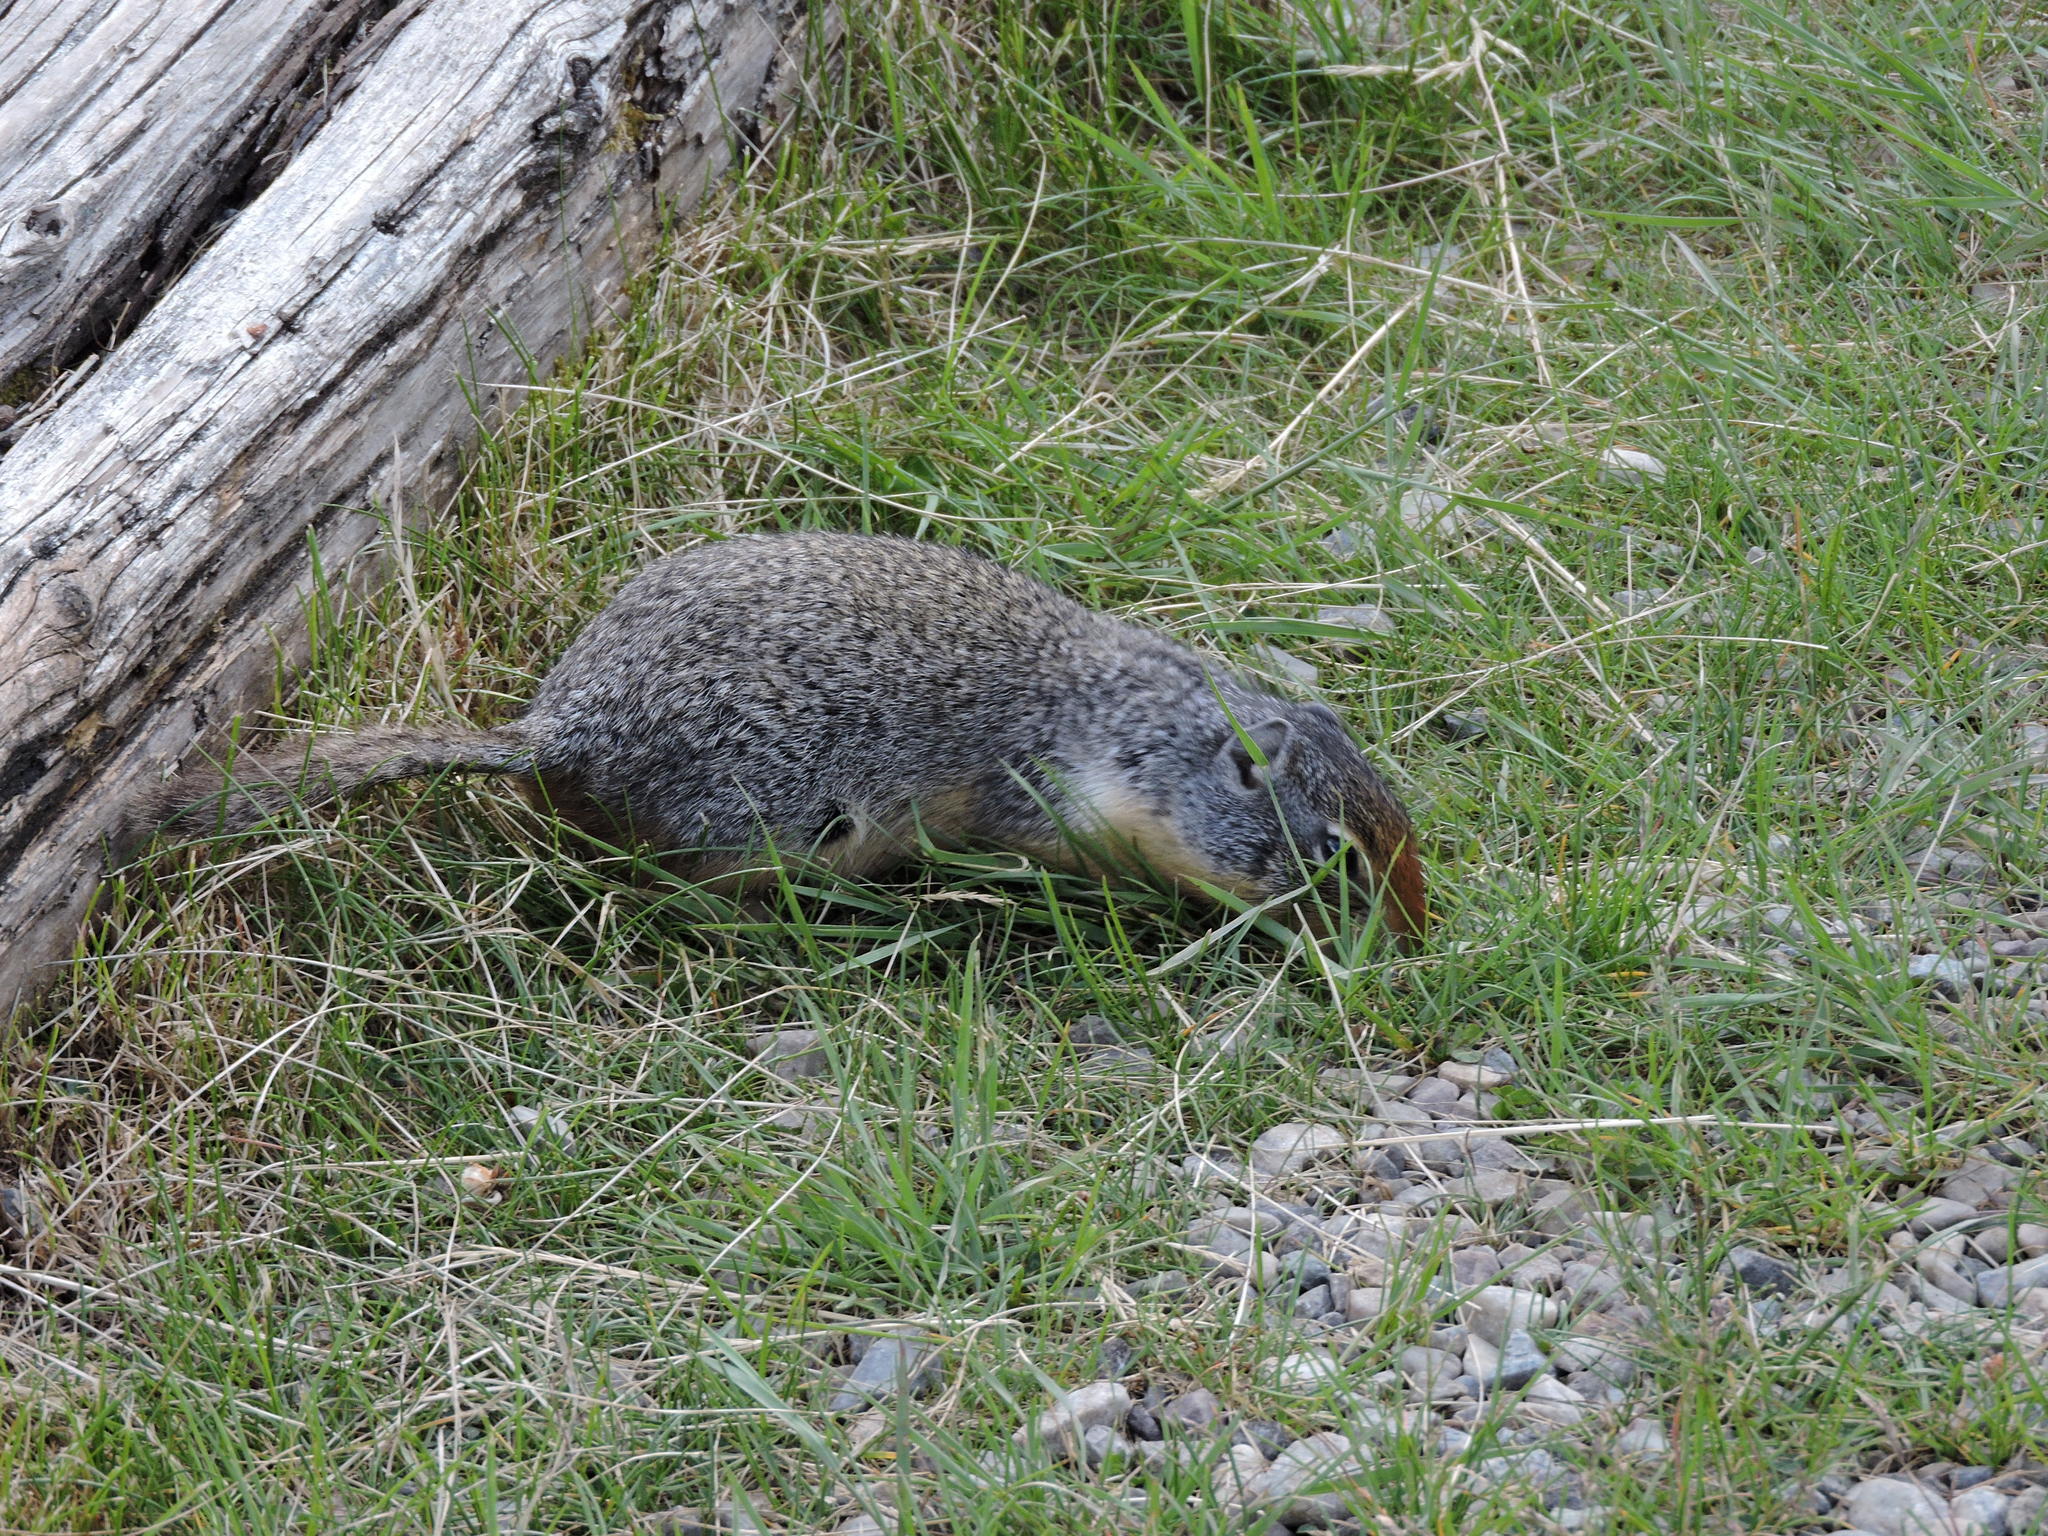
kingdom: Animalia
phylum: Chordata
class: Mammalia
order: Rodentia
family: Sciuridae
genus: Urocitellus
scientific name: Urocitellus columbianus
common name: Columbian ground squirrel
